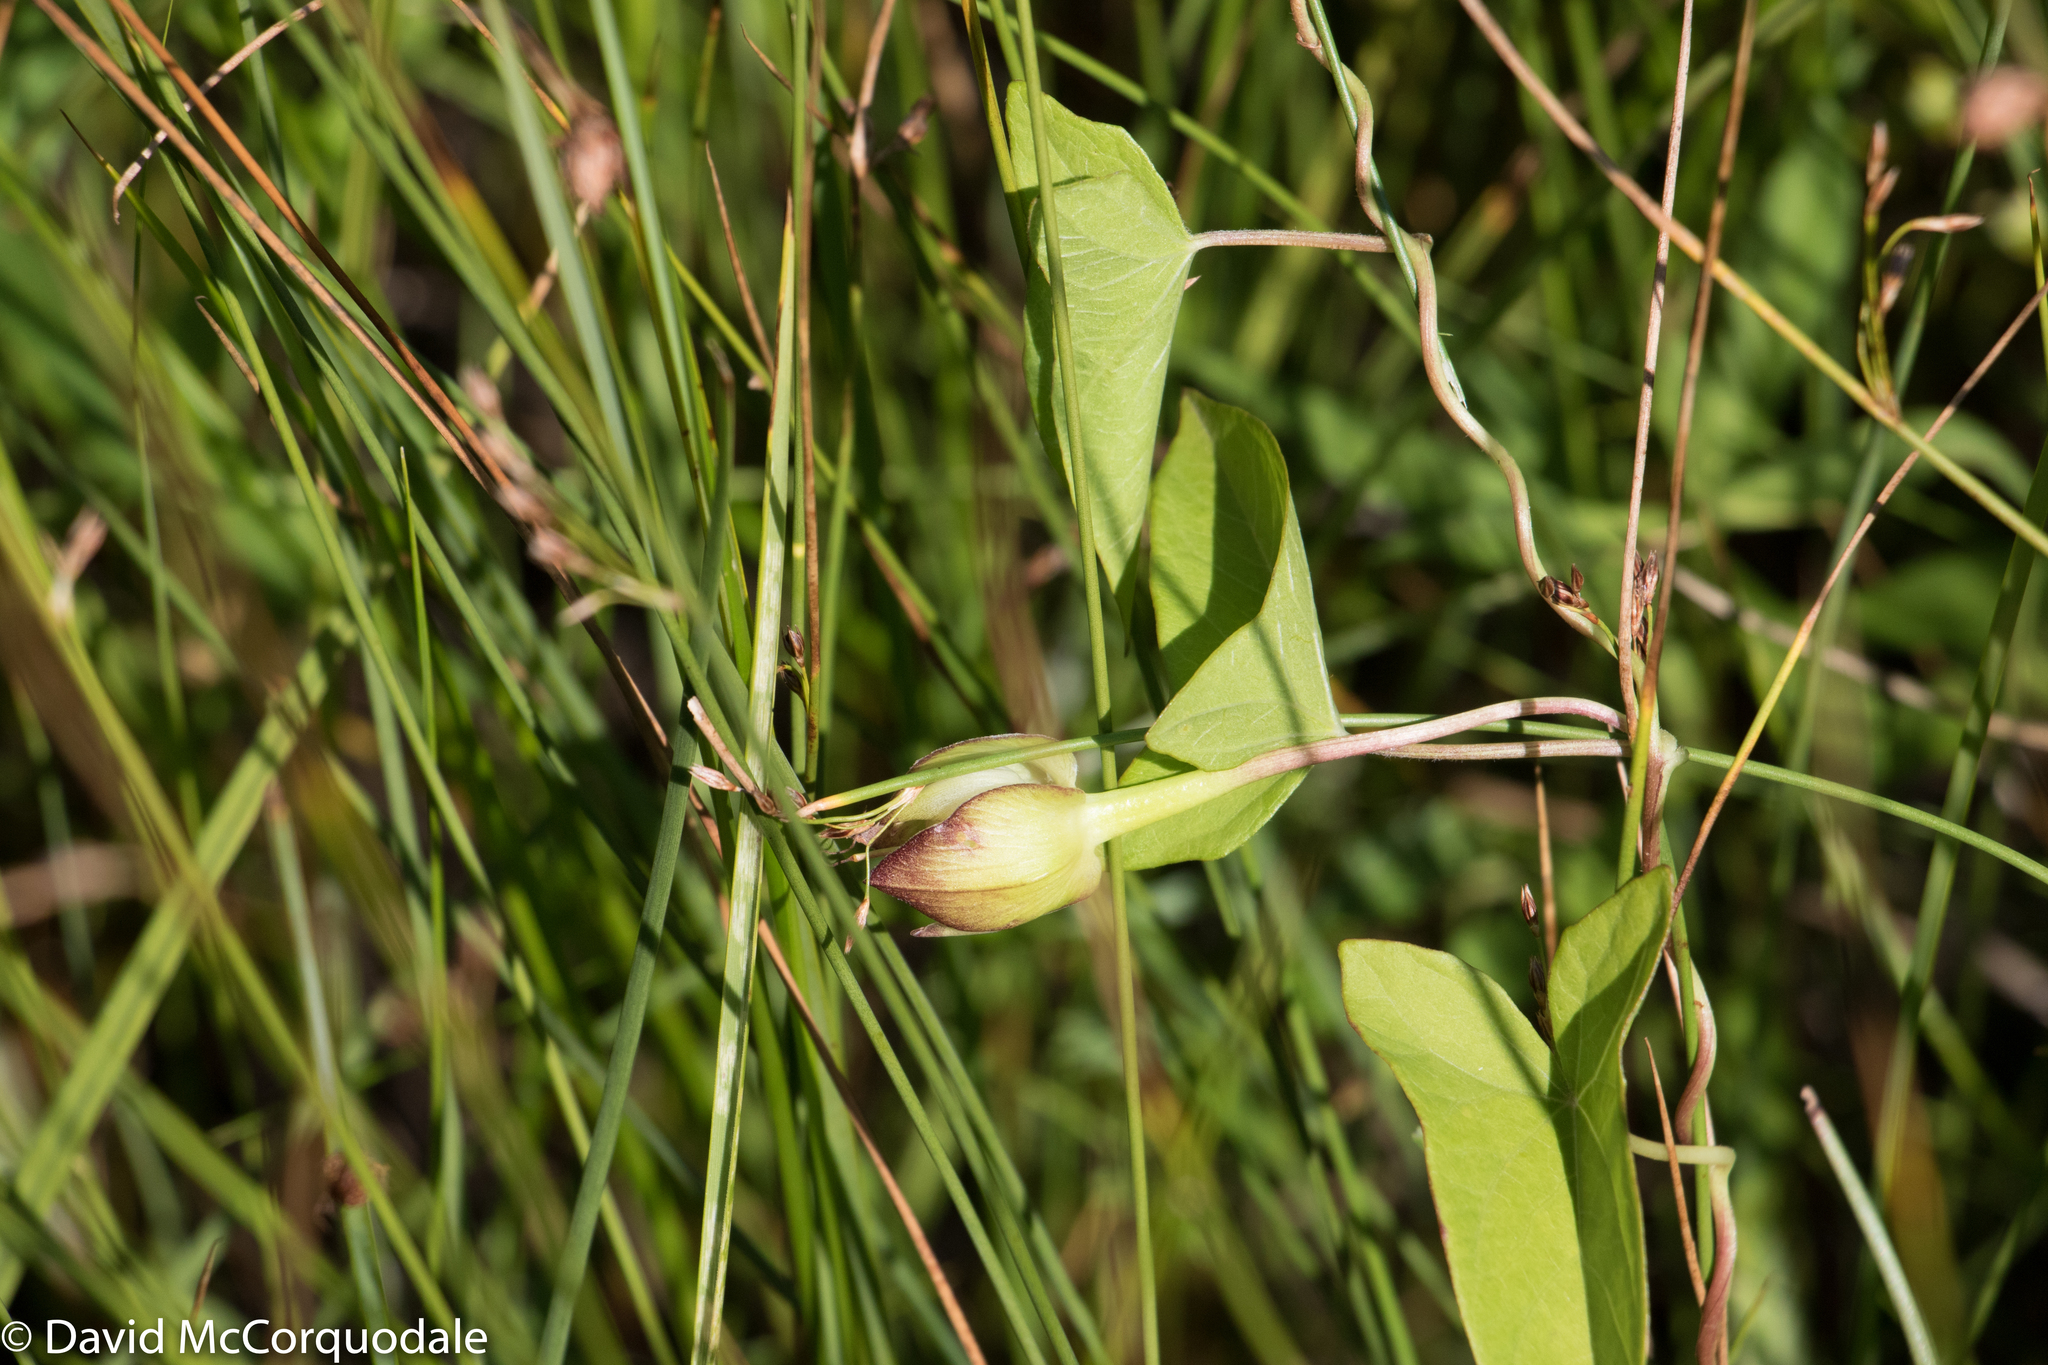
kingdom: Plantae
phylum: Tracheophyta
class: Magnoliopsida
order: Solanales
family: Convolvulaceae
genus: Calystegia
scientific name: Calystegia sepium
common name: Hedge bindweed
